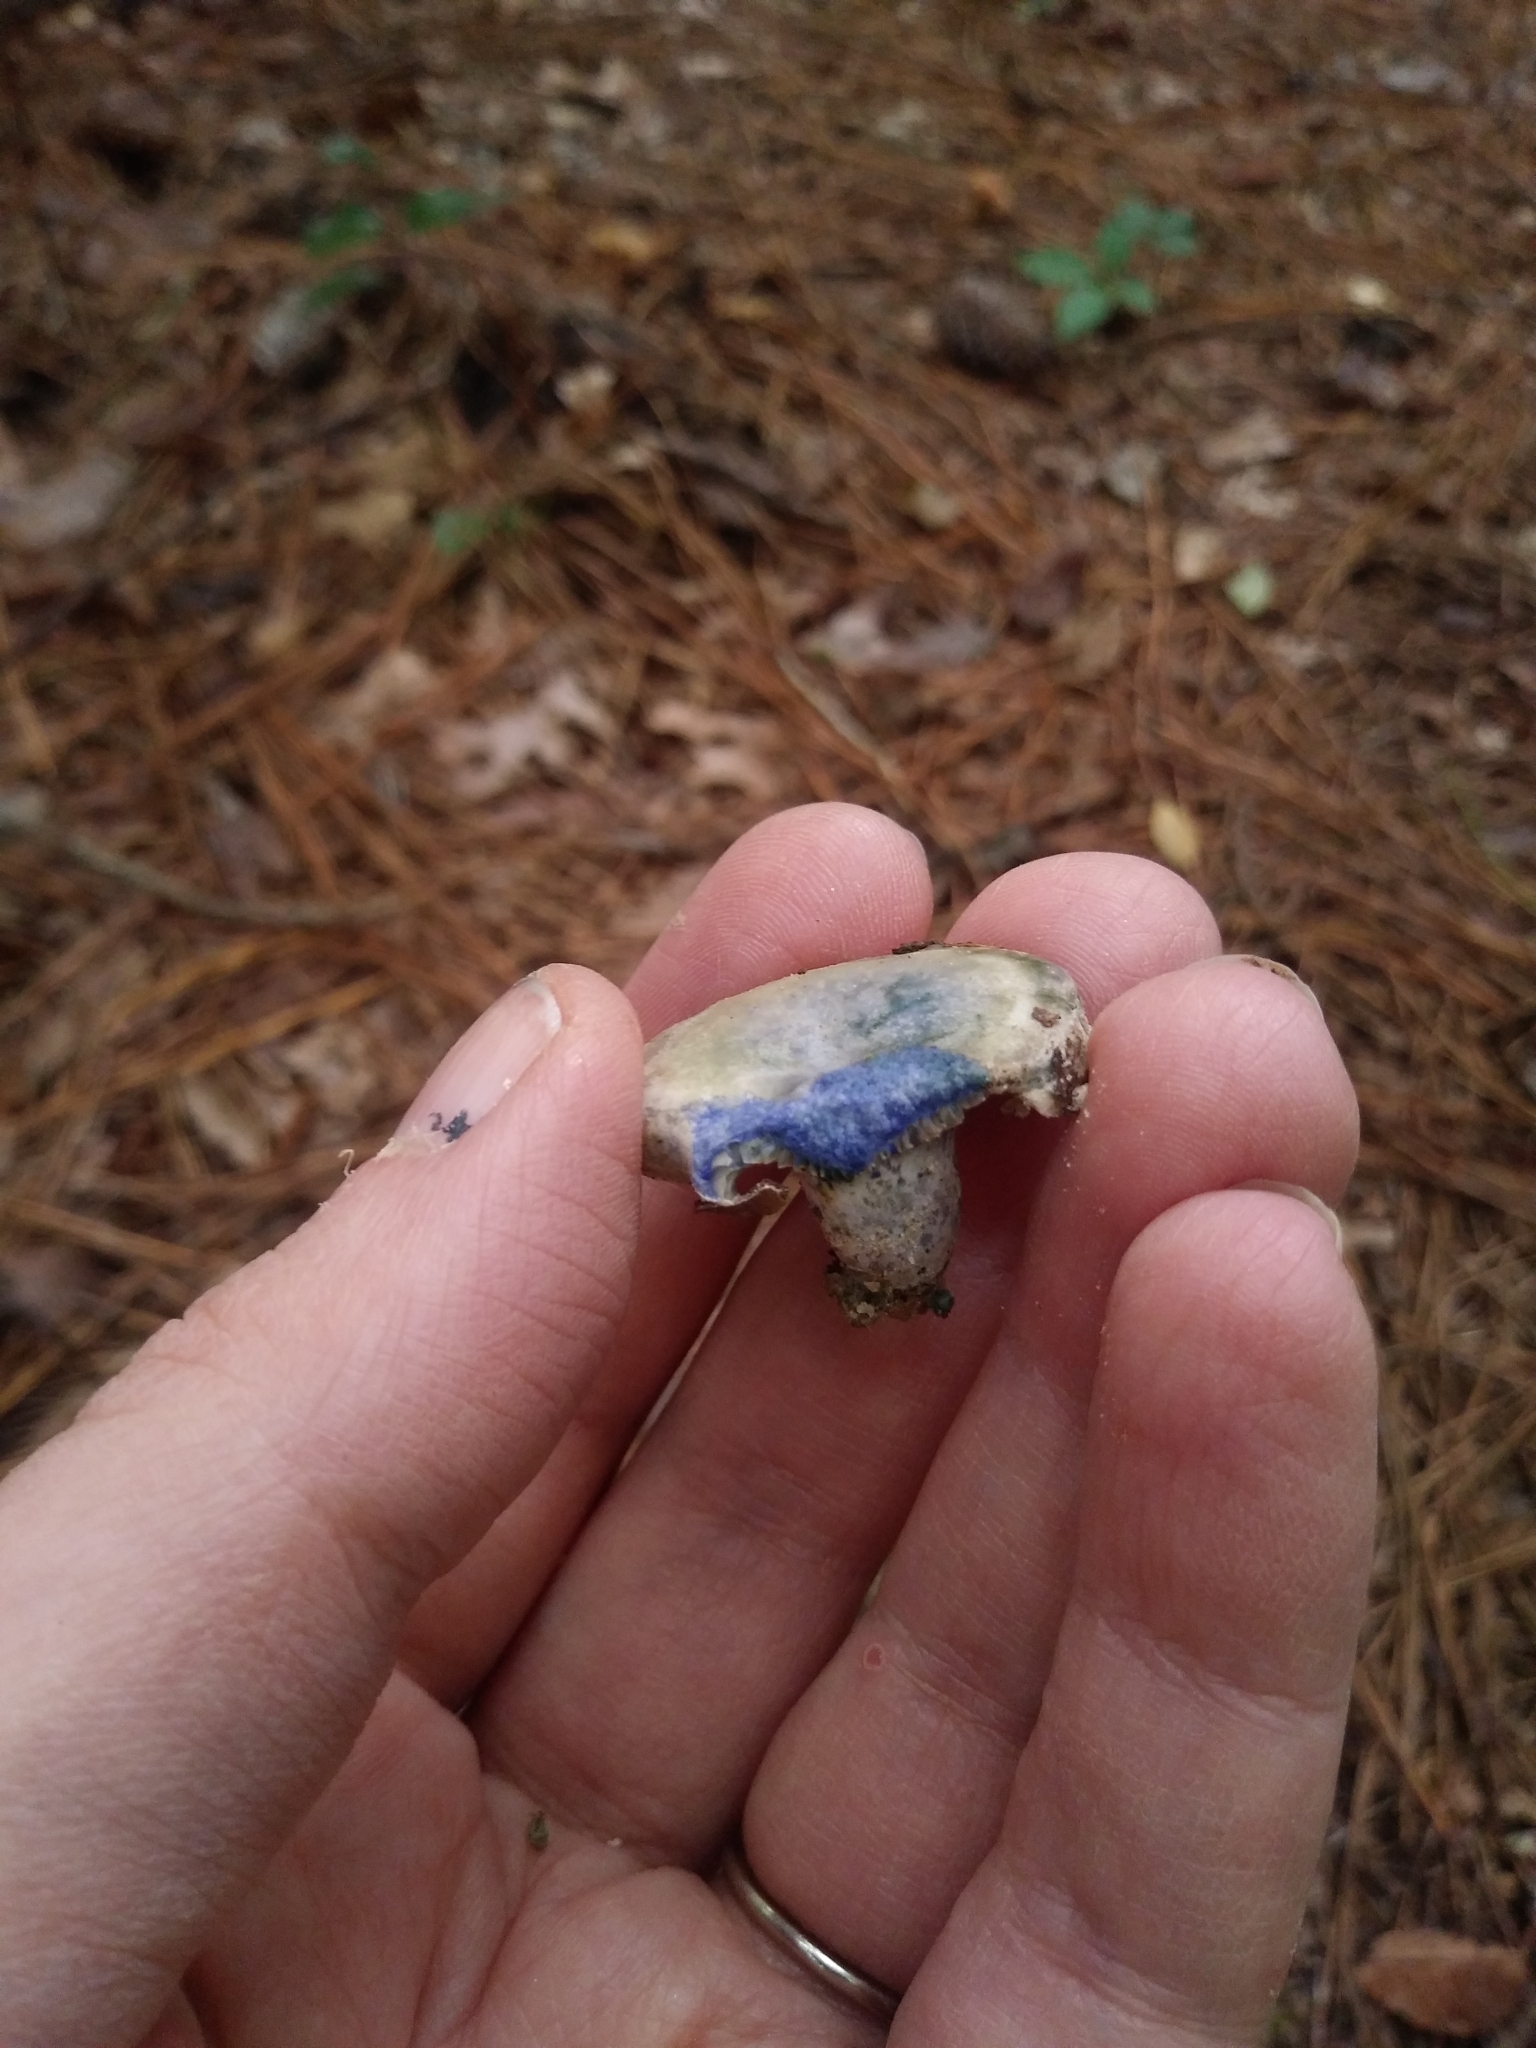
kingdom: Fungi
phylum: Basidiomycota
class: Agaricomycetes
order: Russulales
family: Russulaceae
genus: Lactarius
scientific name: Lactarius indigo
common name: Indigo milk cap
